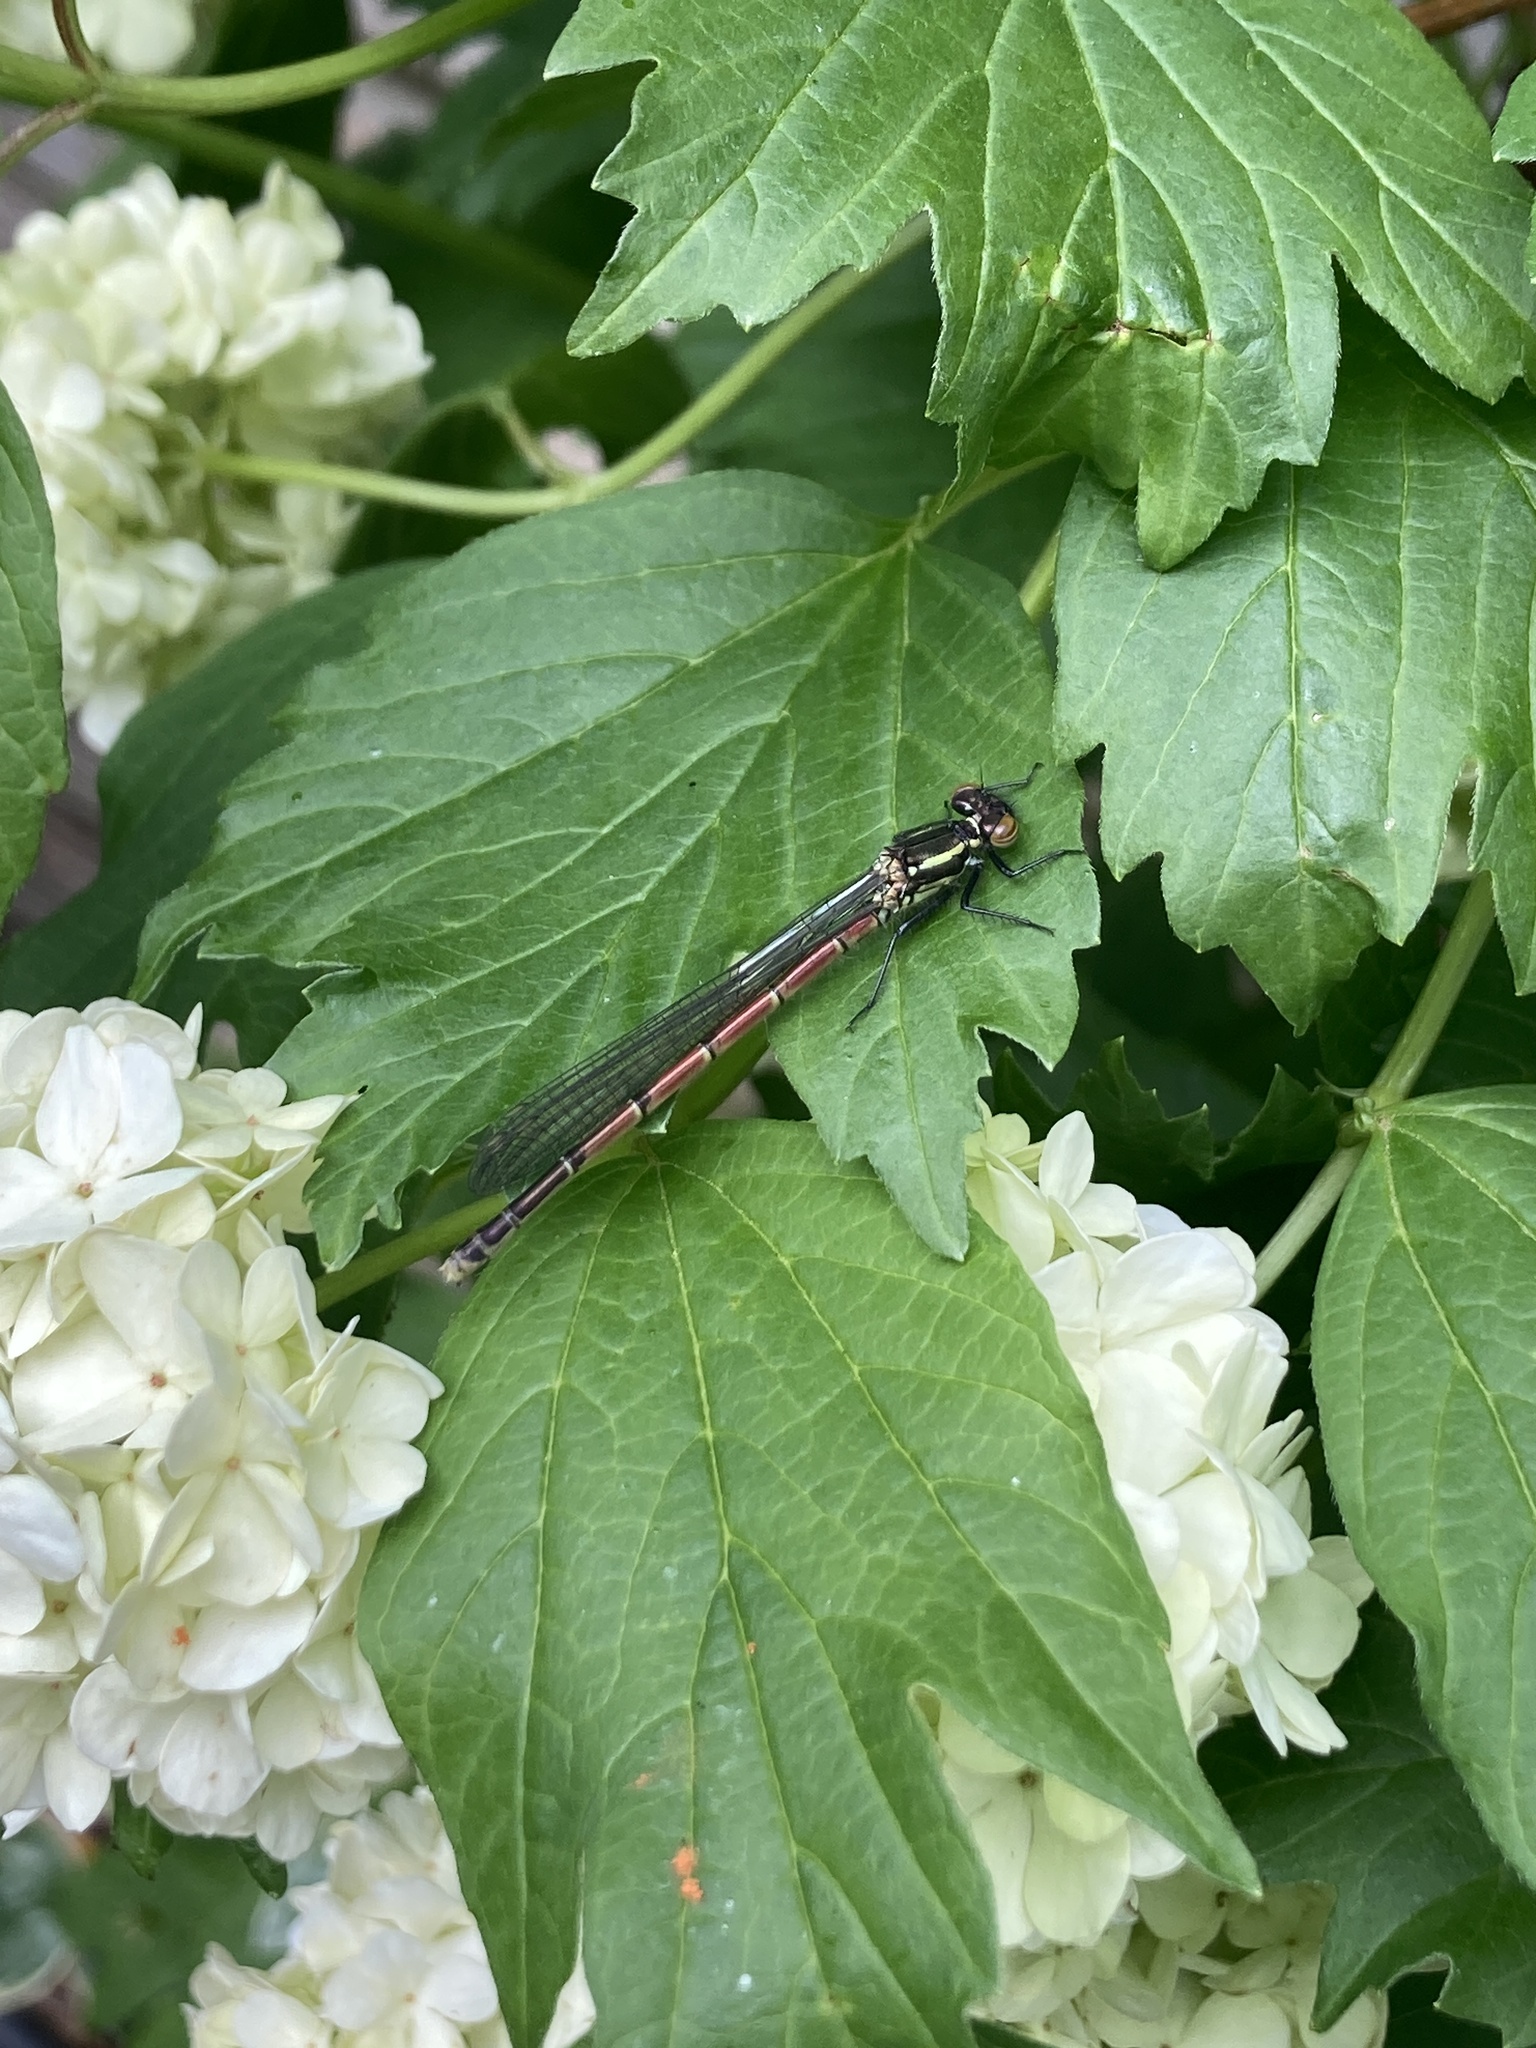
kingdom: Animalia
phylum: Arthropoda
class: Insecta
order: Odonata
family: Coenagrionidae
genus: Pyrrhosoma
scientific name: Pyrrhosoma nymphula
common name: Large red damsel
